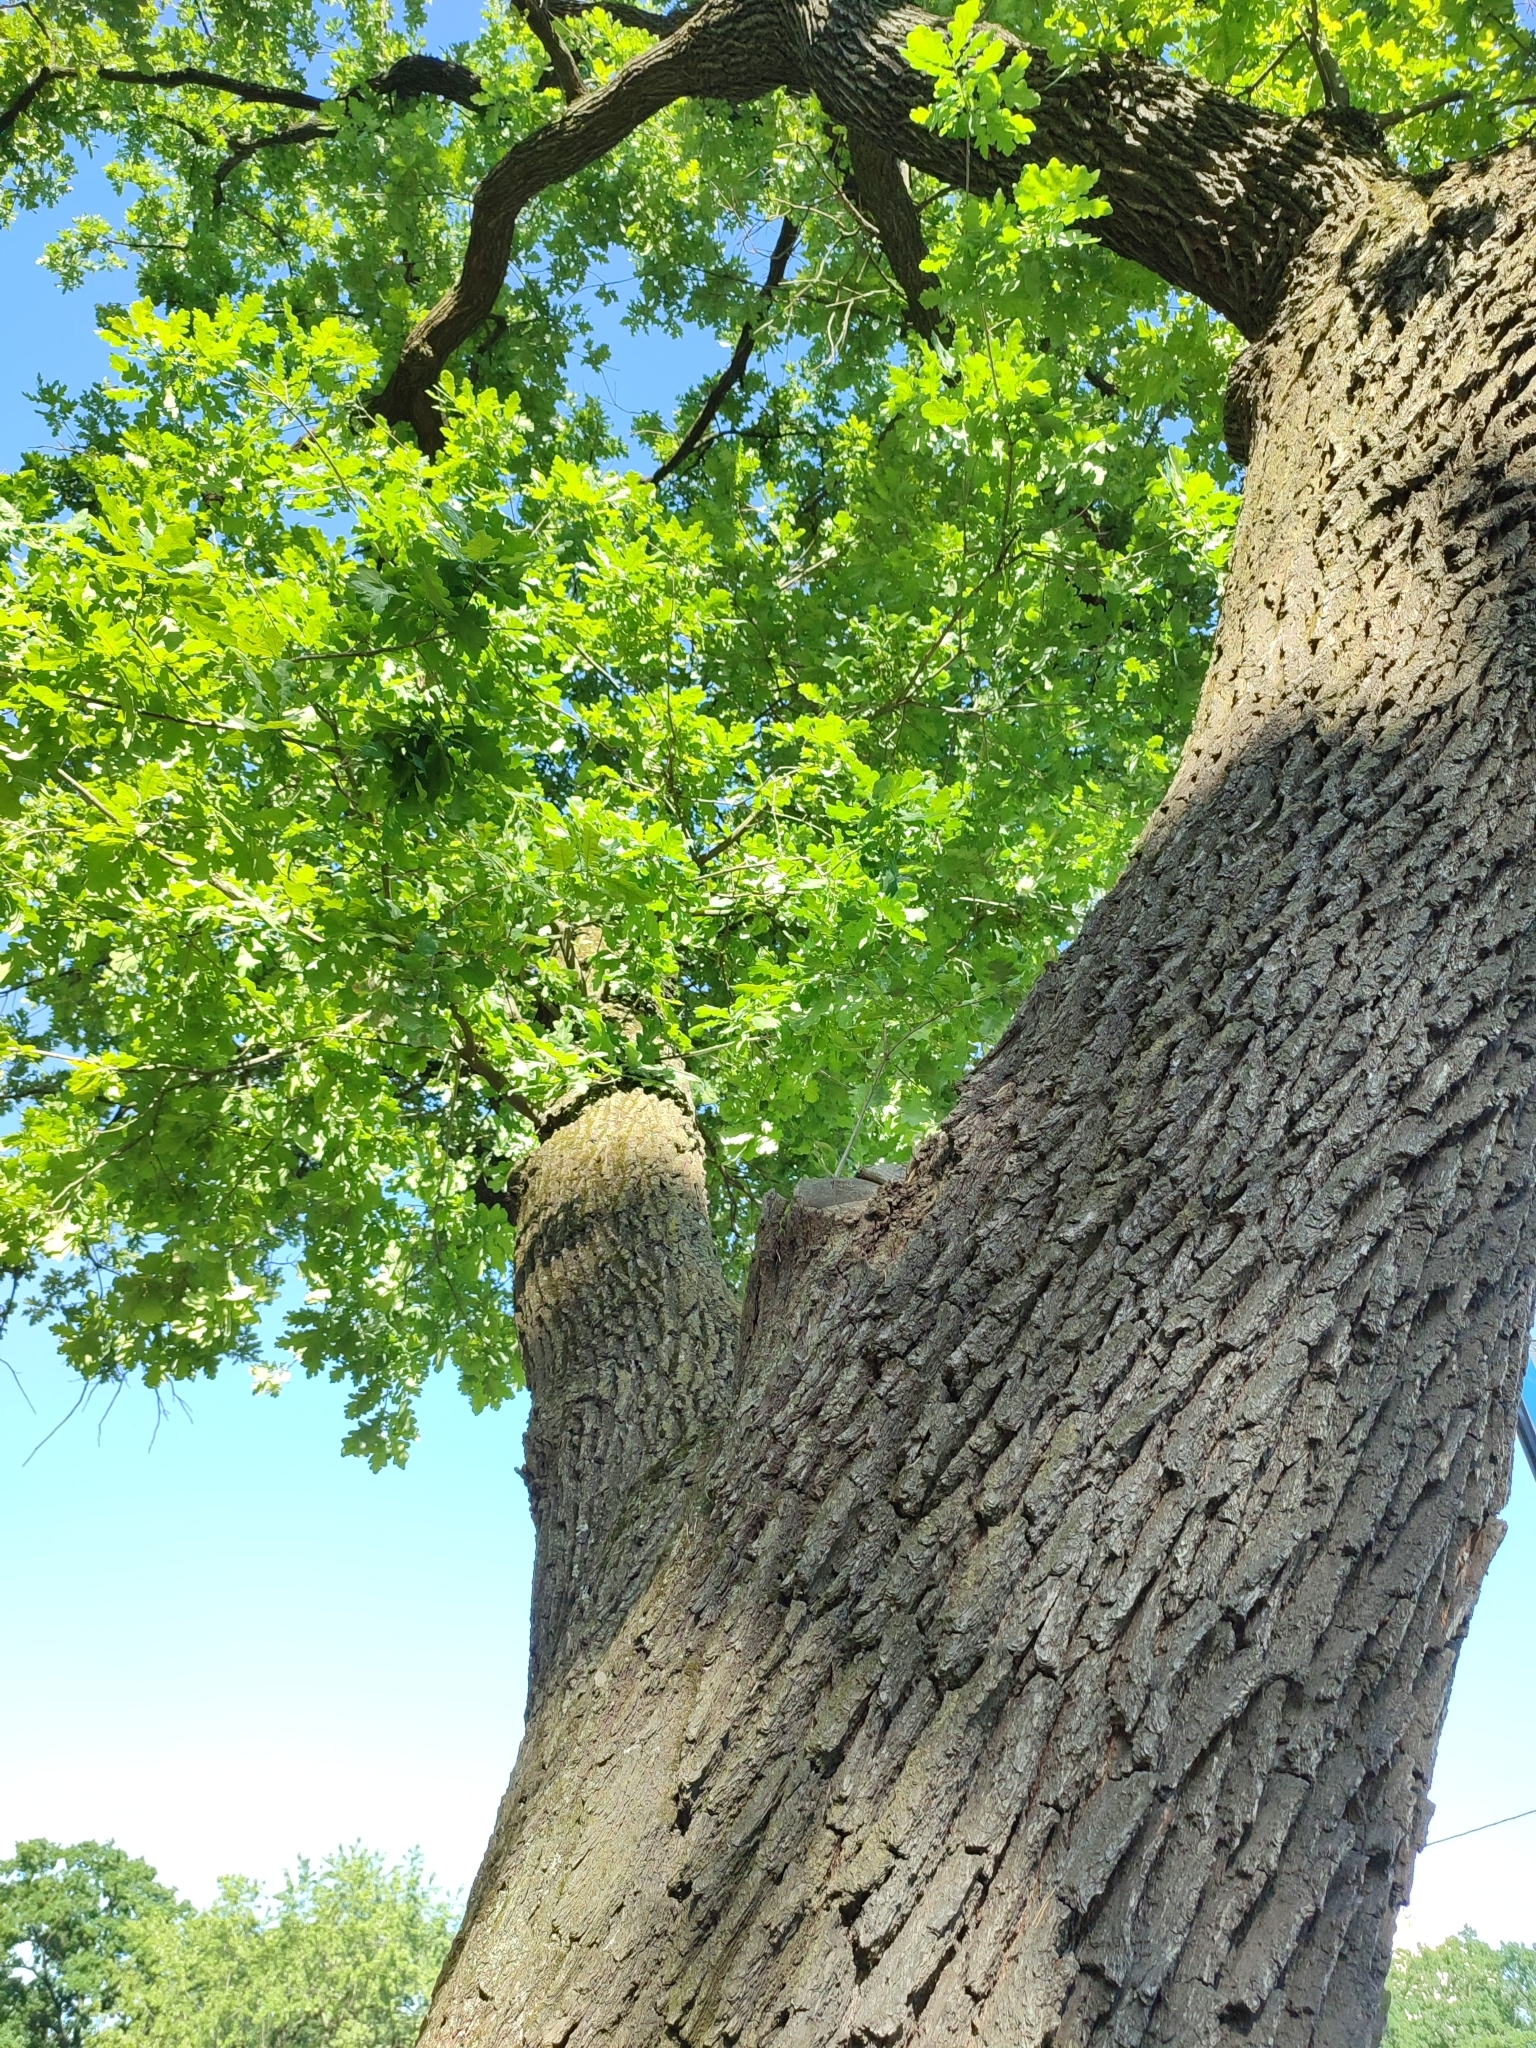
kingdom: Plantae
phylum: Tracheophyta
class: Magnoliopsida
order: Fagales
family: Fagaceae
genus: Quercus
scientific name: Quercus robur
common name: Pedunculate oak
